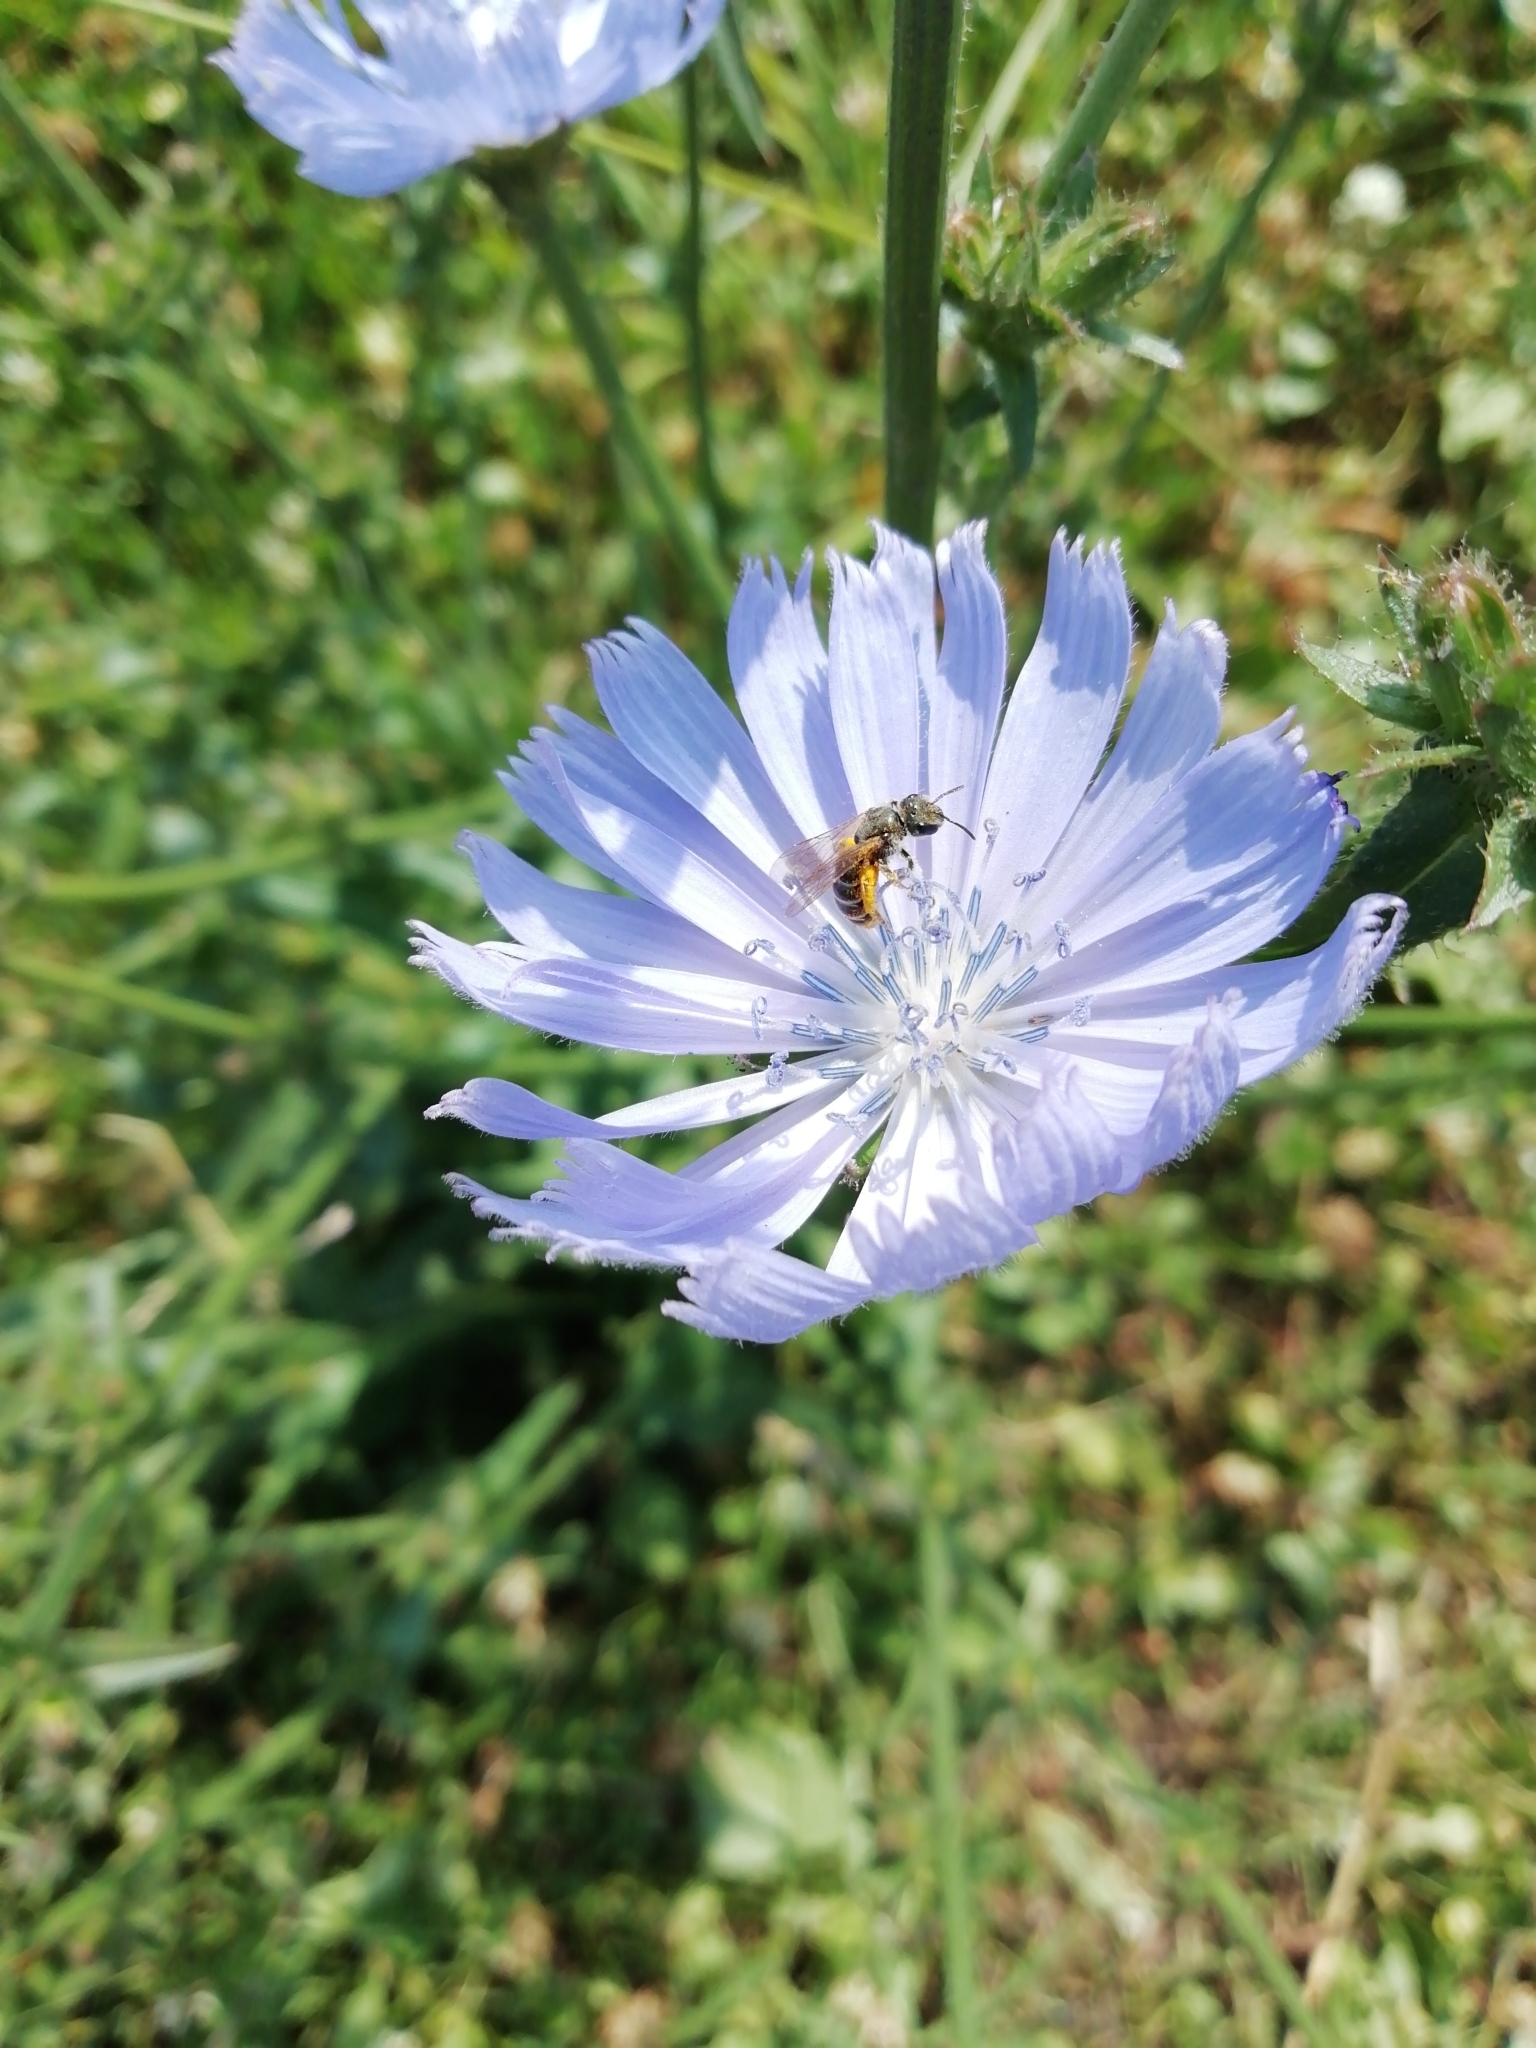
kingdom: Plantae
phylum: Tracheophyta
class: Magnoliopsida
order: Asterales
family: Asteraceae
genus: Cichorium
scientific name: Cichorium intybus
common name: Chicory
